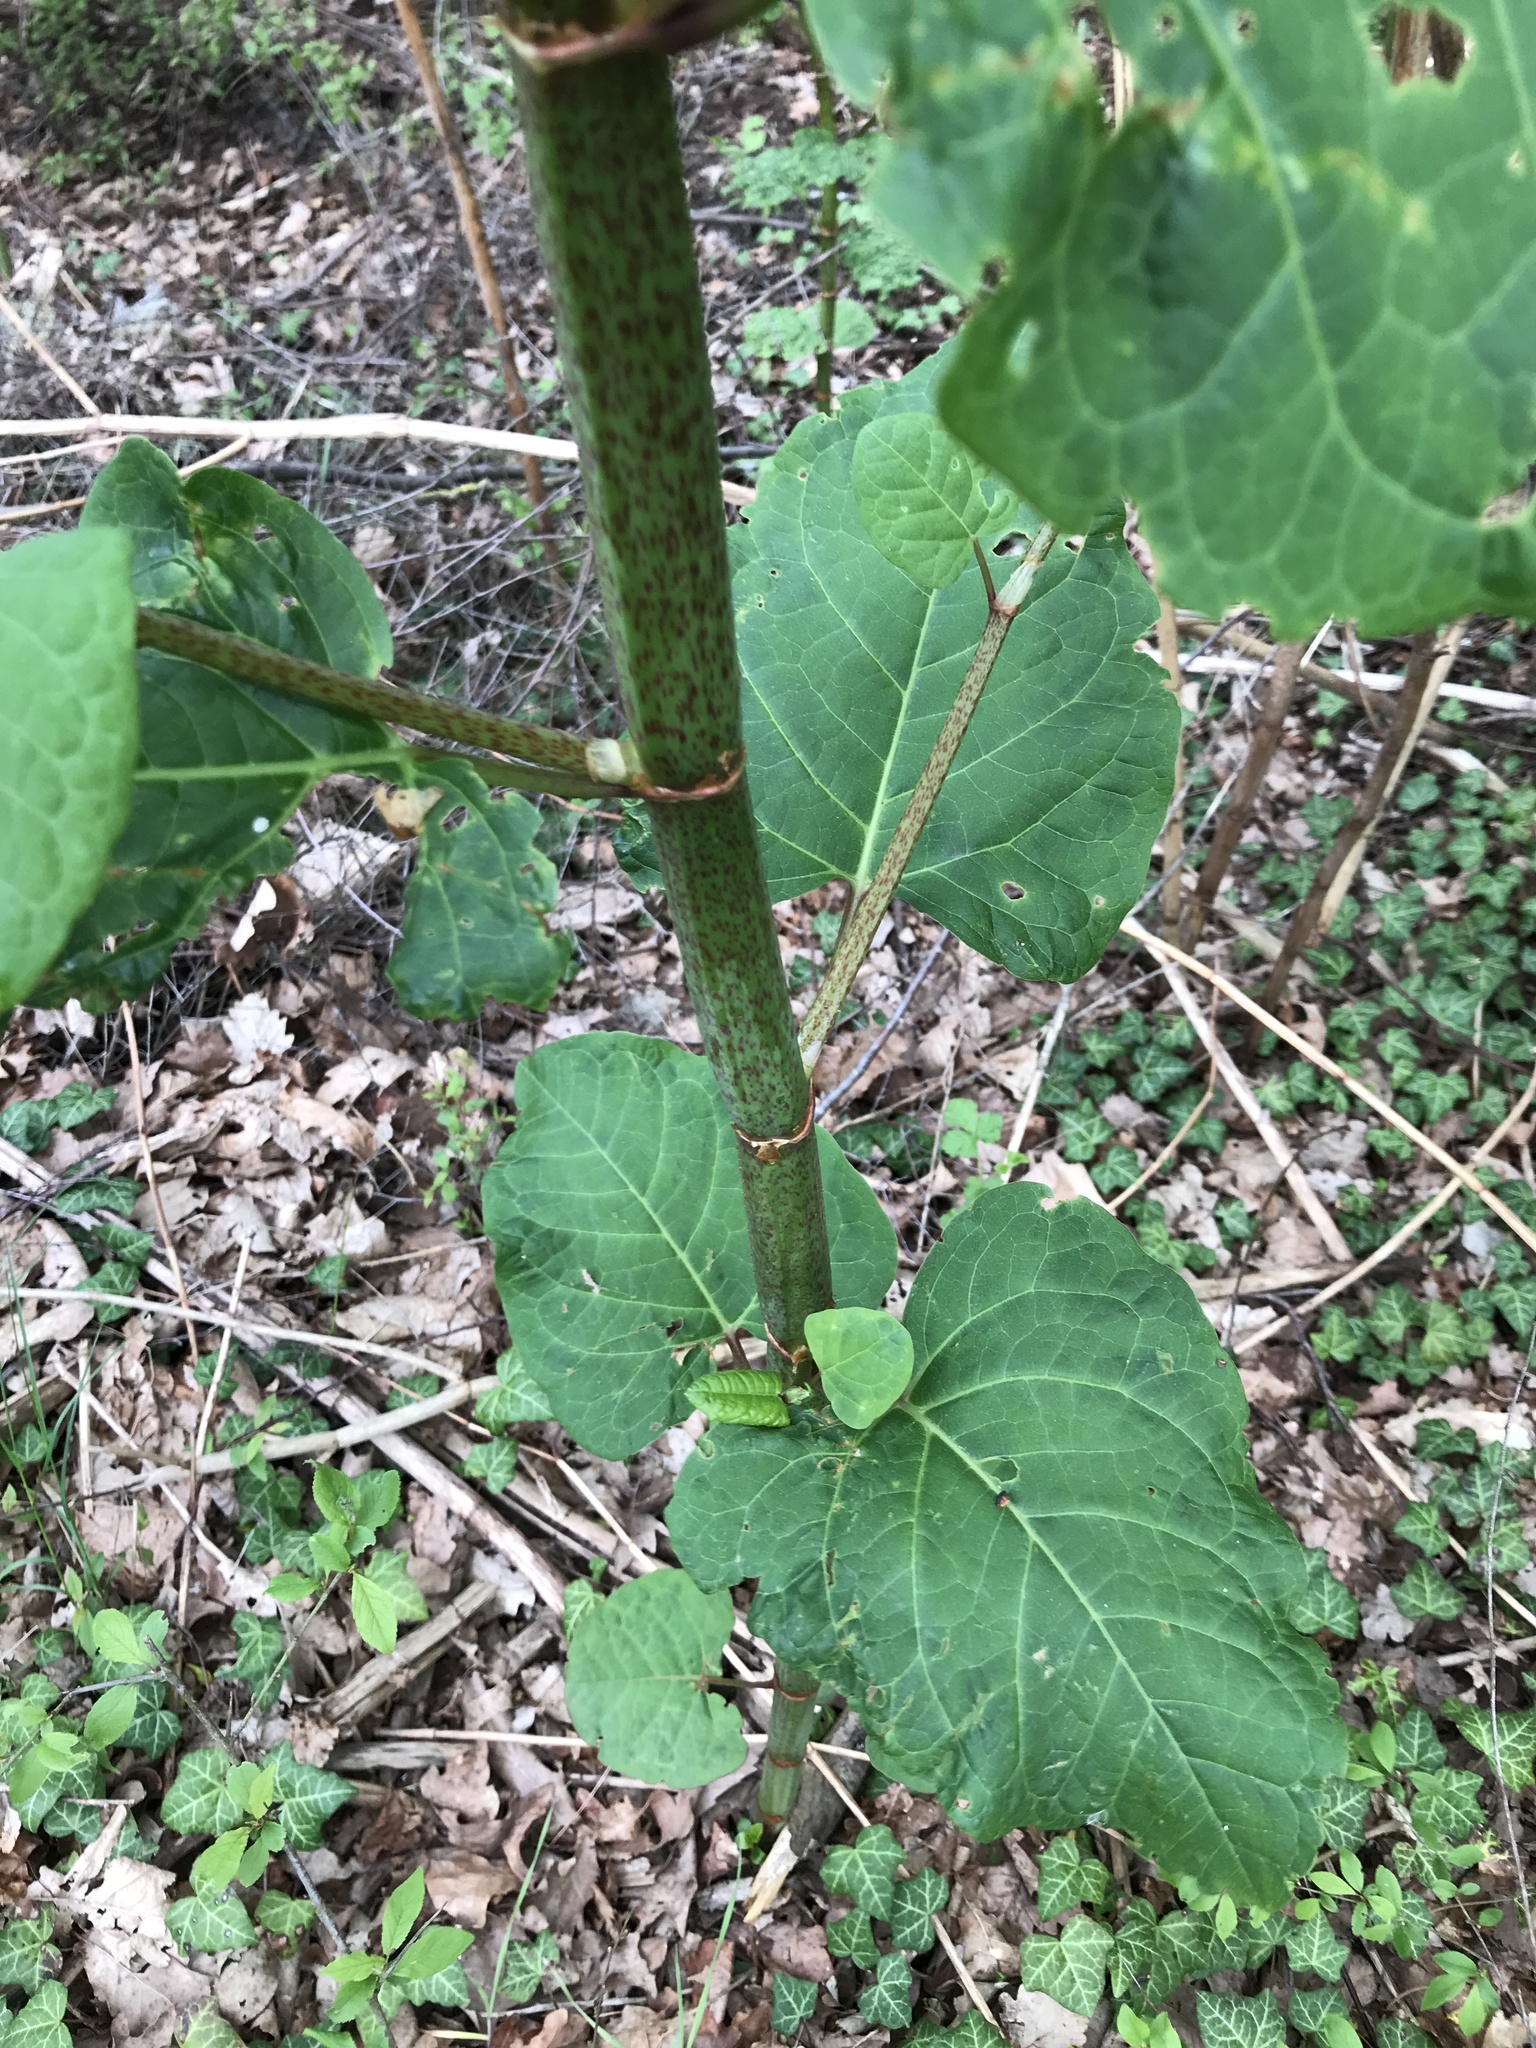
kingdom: Plantae
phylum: Tracheophyta
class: Magnoliopsida
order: Caryophyllales
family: Polygonaceae
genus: Reynoutria
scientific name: Reynoutria bohemica
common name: Bohemian knotweed
